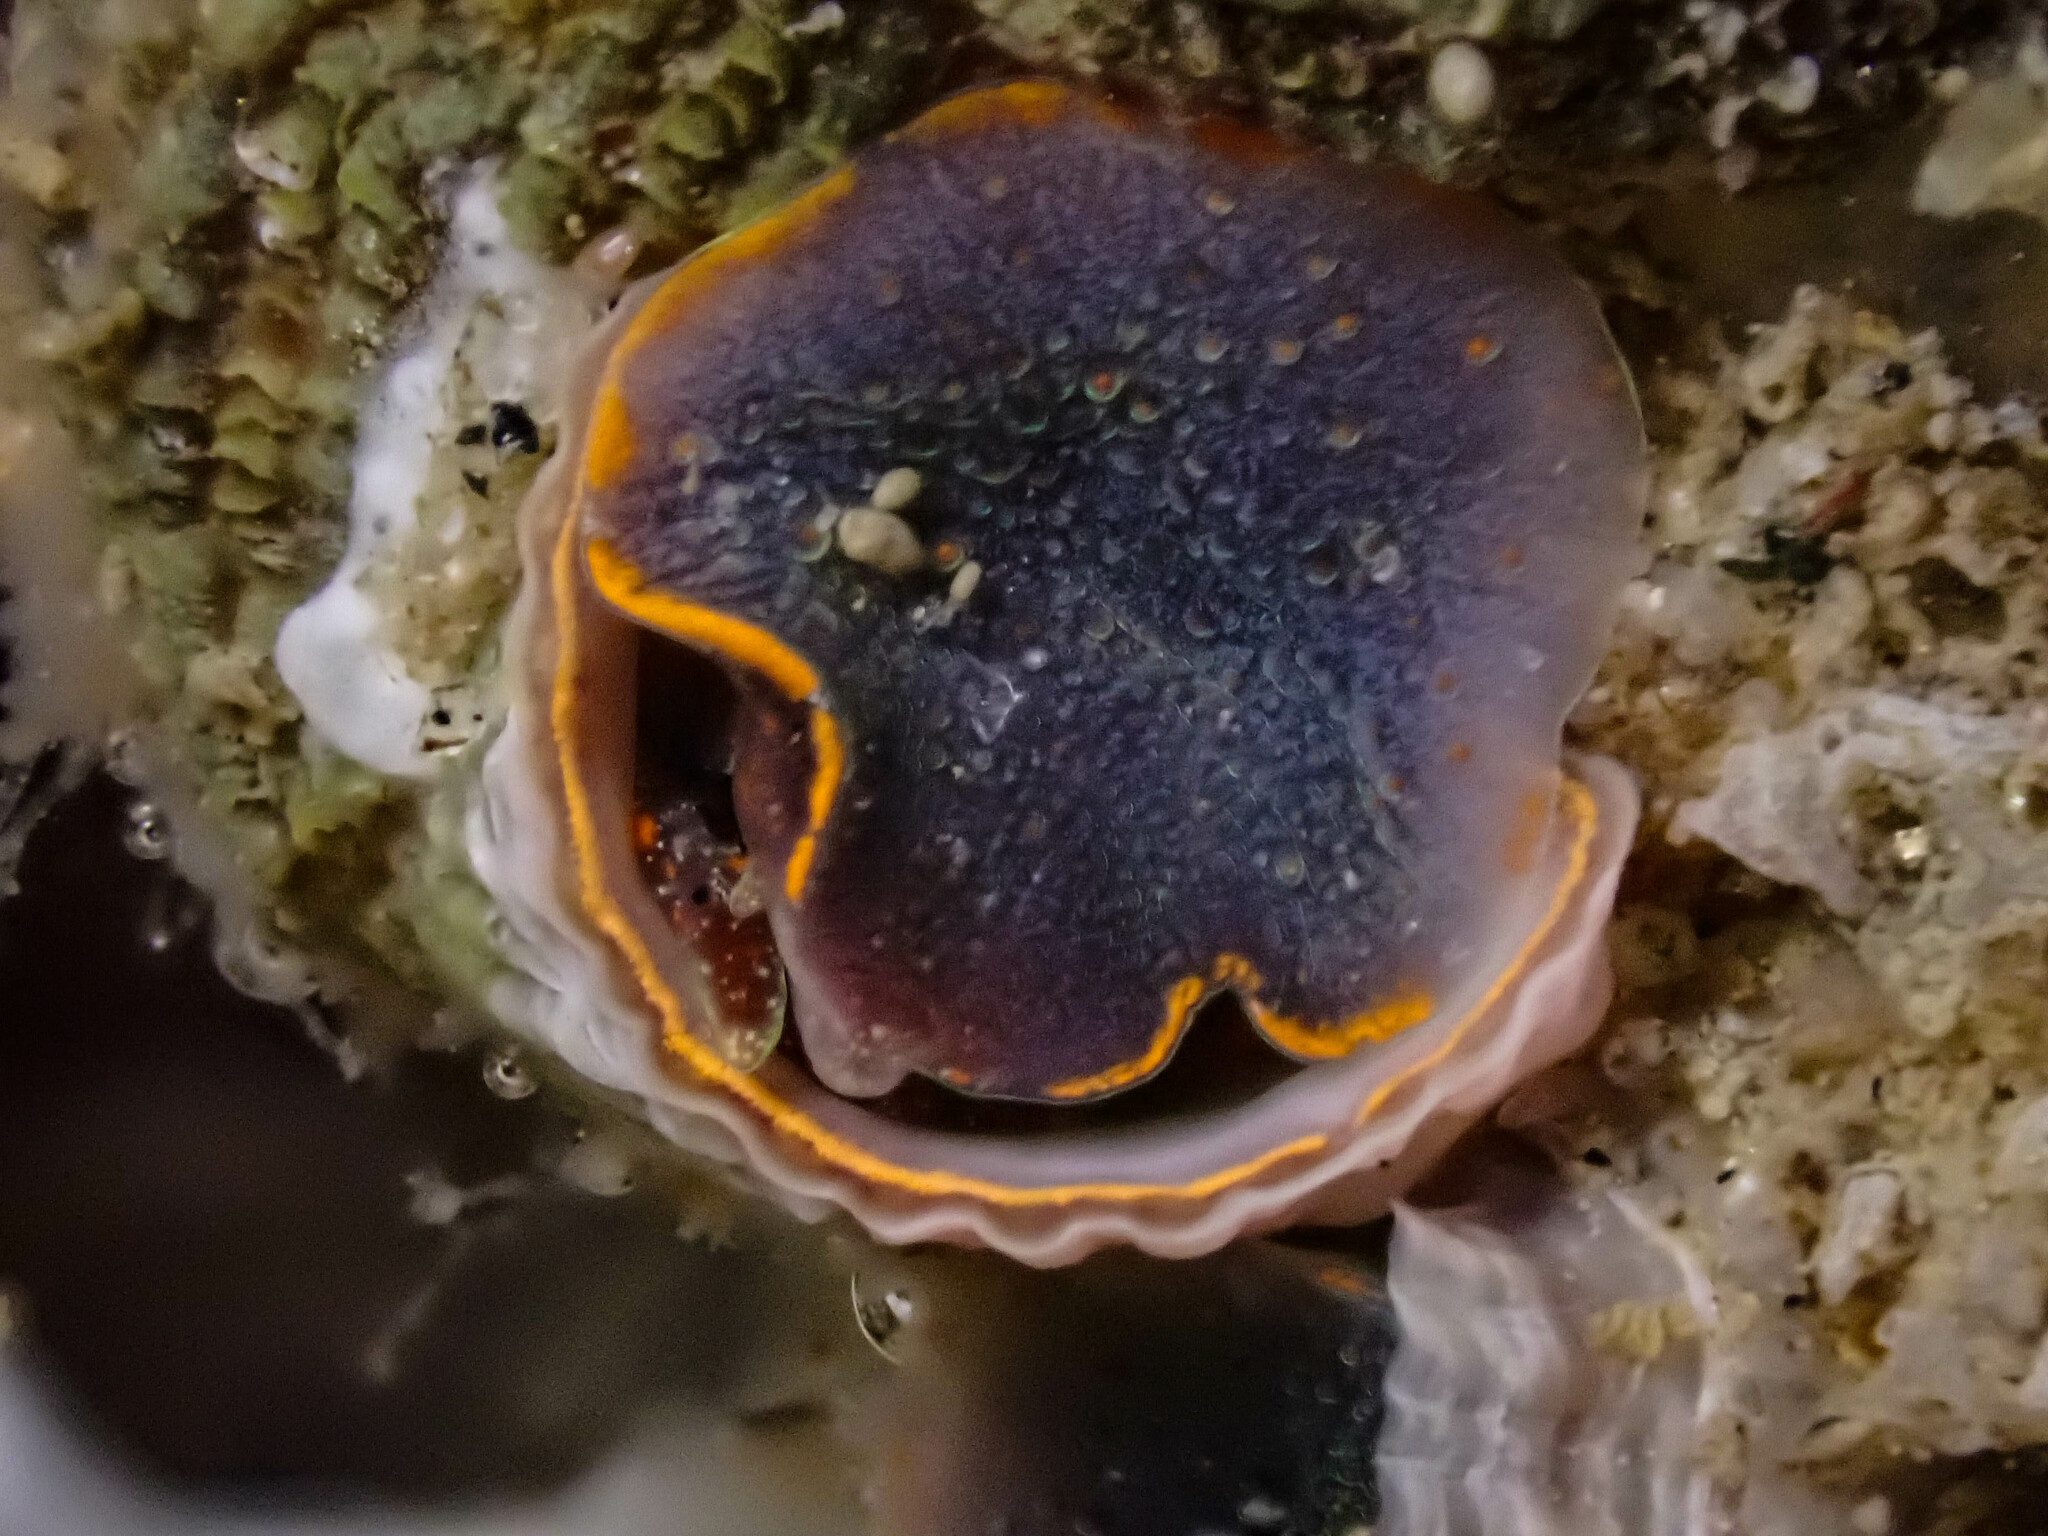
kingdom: Animalia
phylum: Mollusca
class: Gastropoda
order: Littorinimorpha
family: Vermetidae
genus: Thylacodes
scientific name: Thylacodes squamigerus
